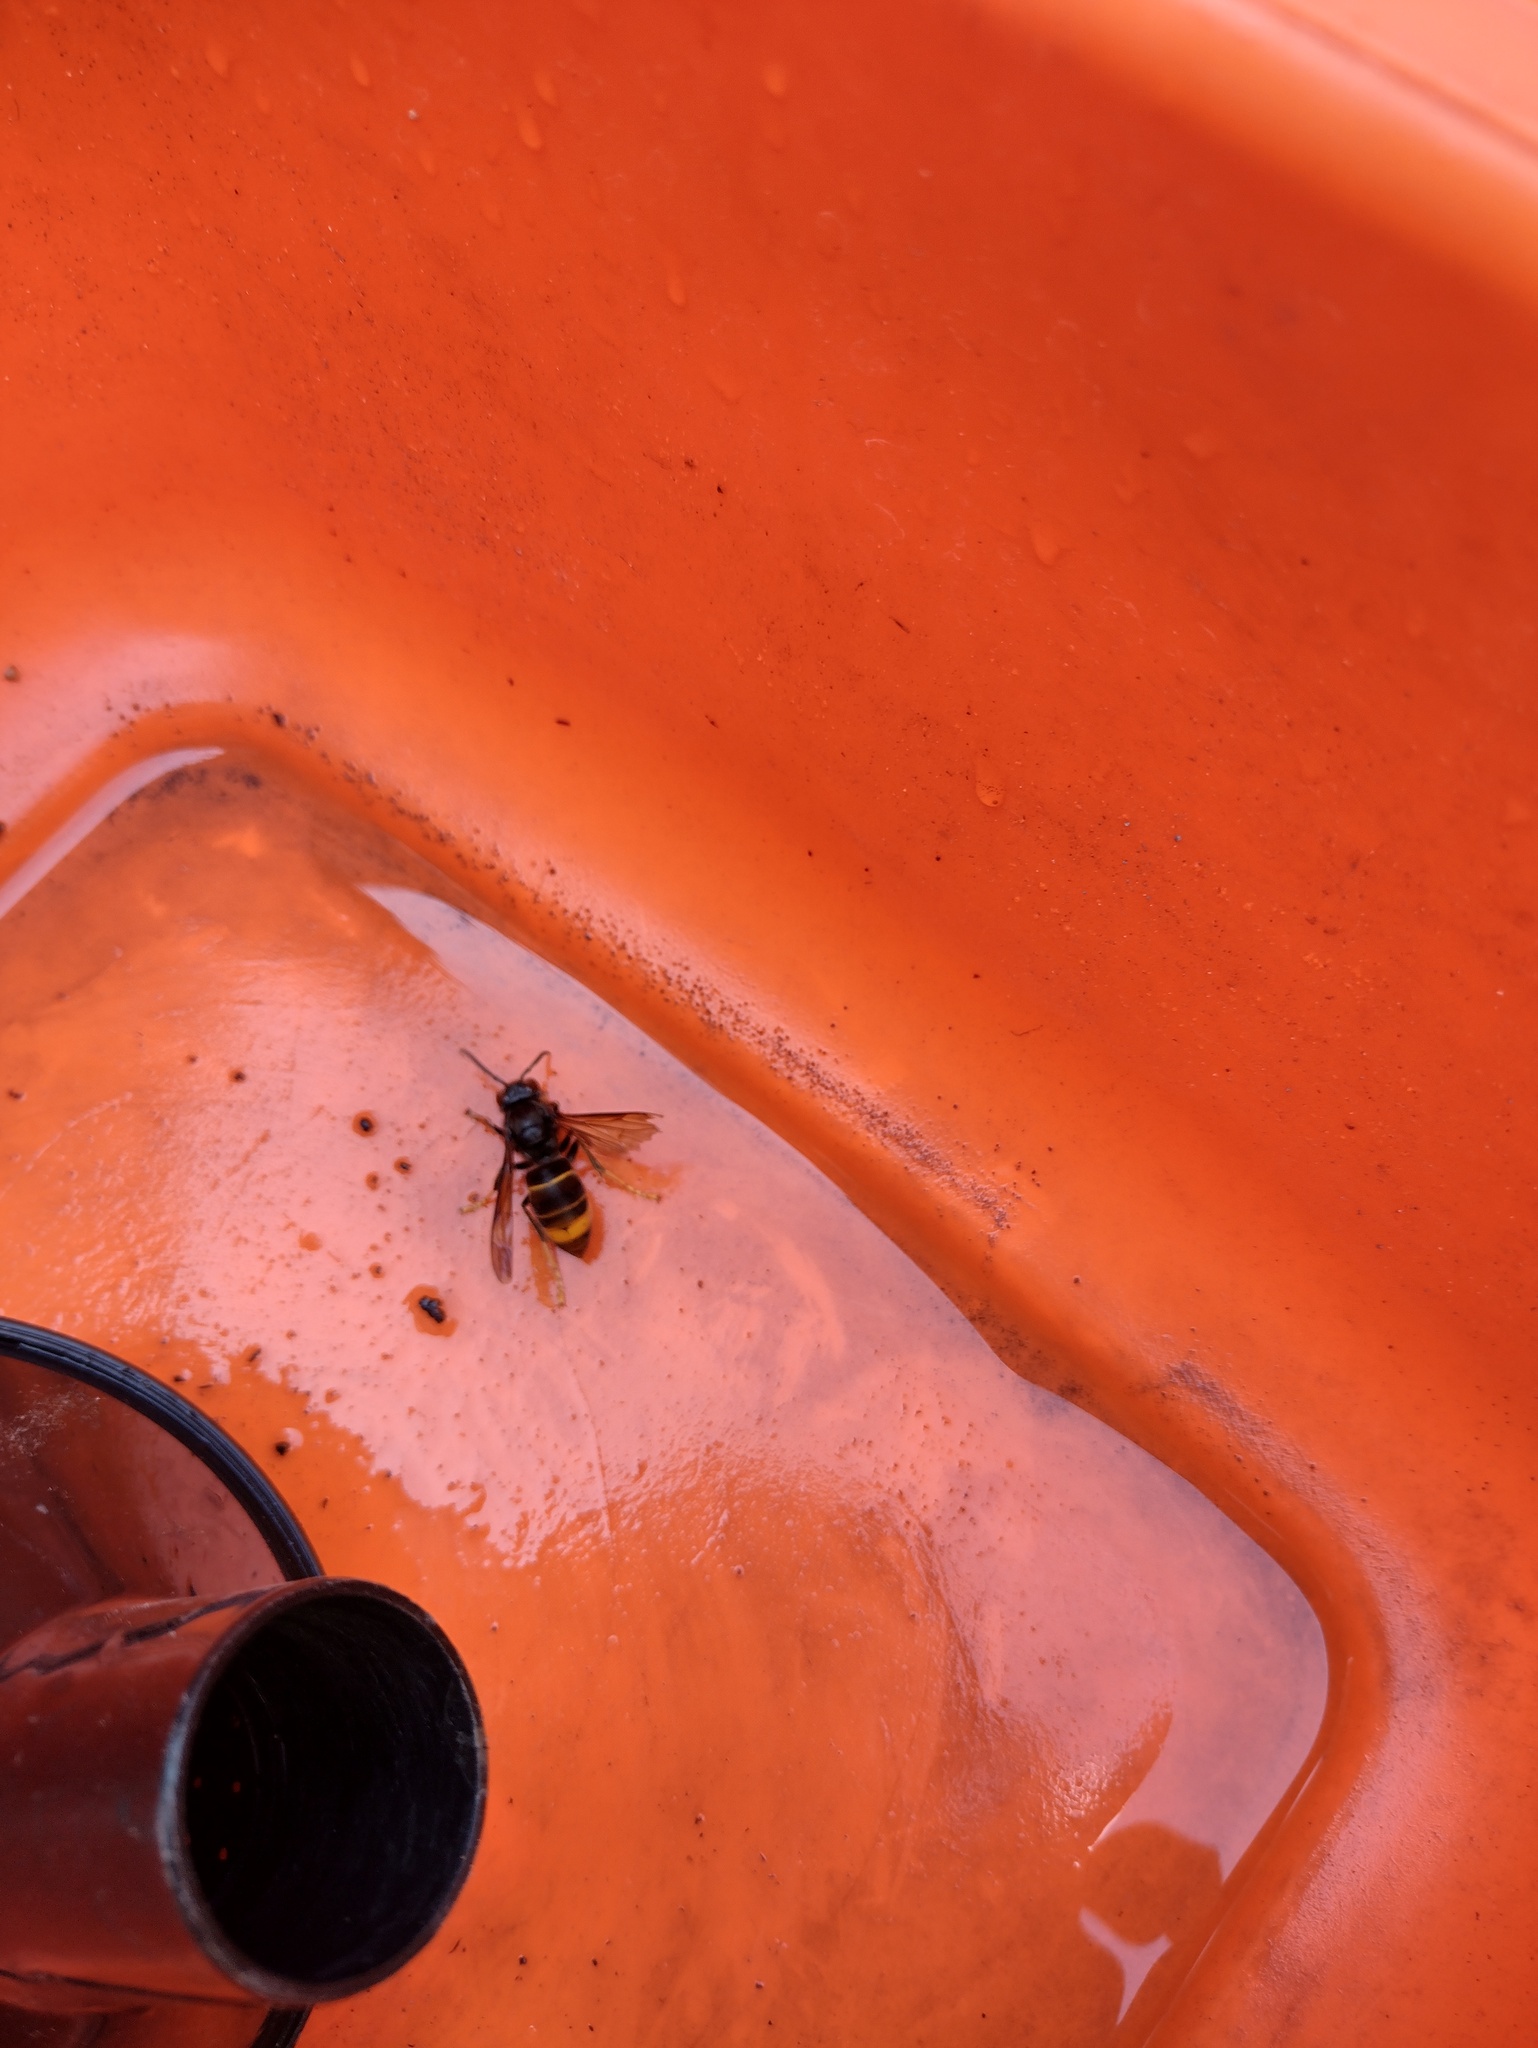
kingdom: Animalia
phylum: Arthropoda
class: Insecta
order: Hymenoptera
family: Vespidae
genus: Vespa
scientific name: Vespa velutina
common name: Asian hornet
